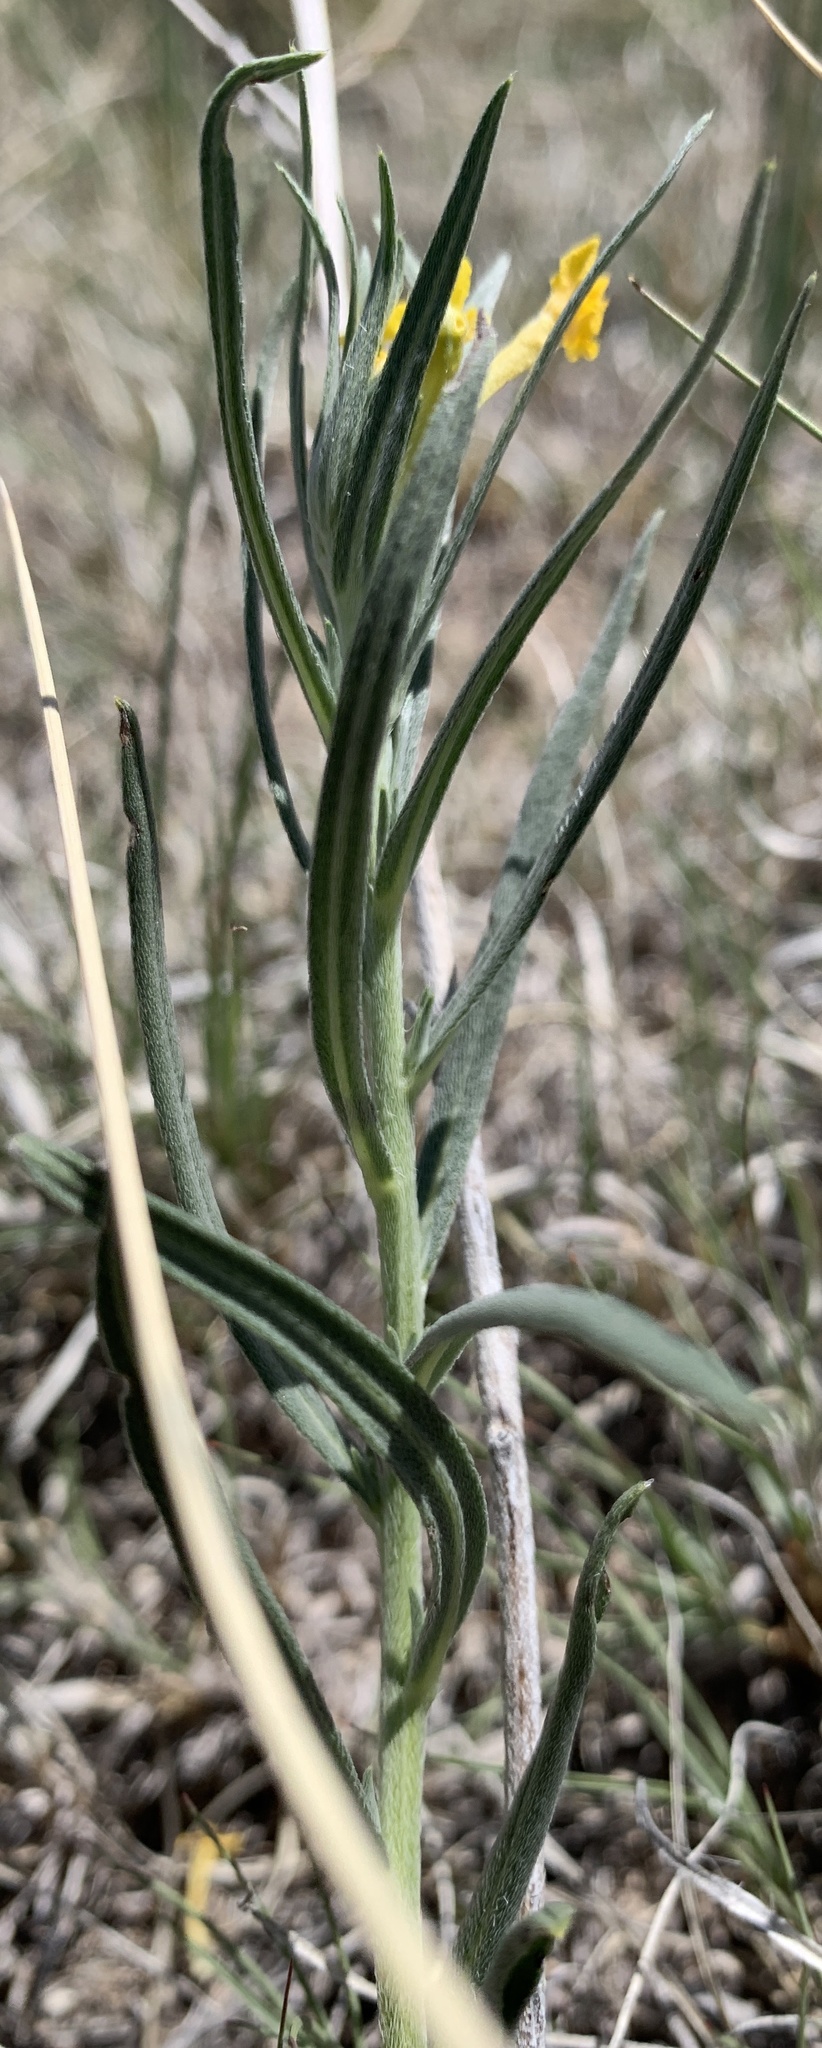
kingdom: Plantae
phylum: Tracheophyta
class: Magnoliopsida
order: Boraginales
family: Boraginaceae
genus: Lithospermum
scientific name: Lithospermum incisum
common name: Fringed gromwell
